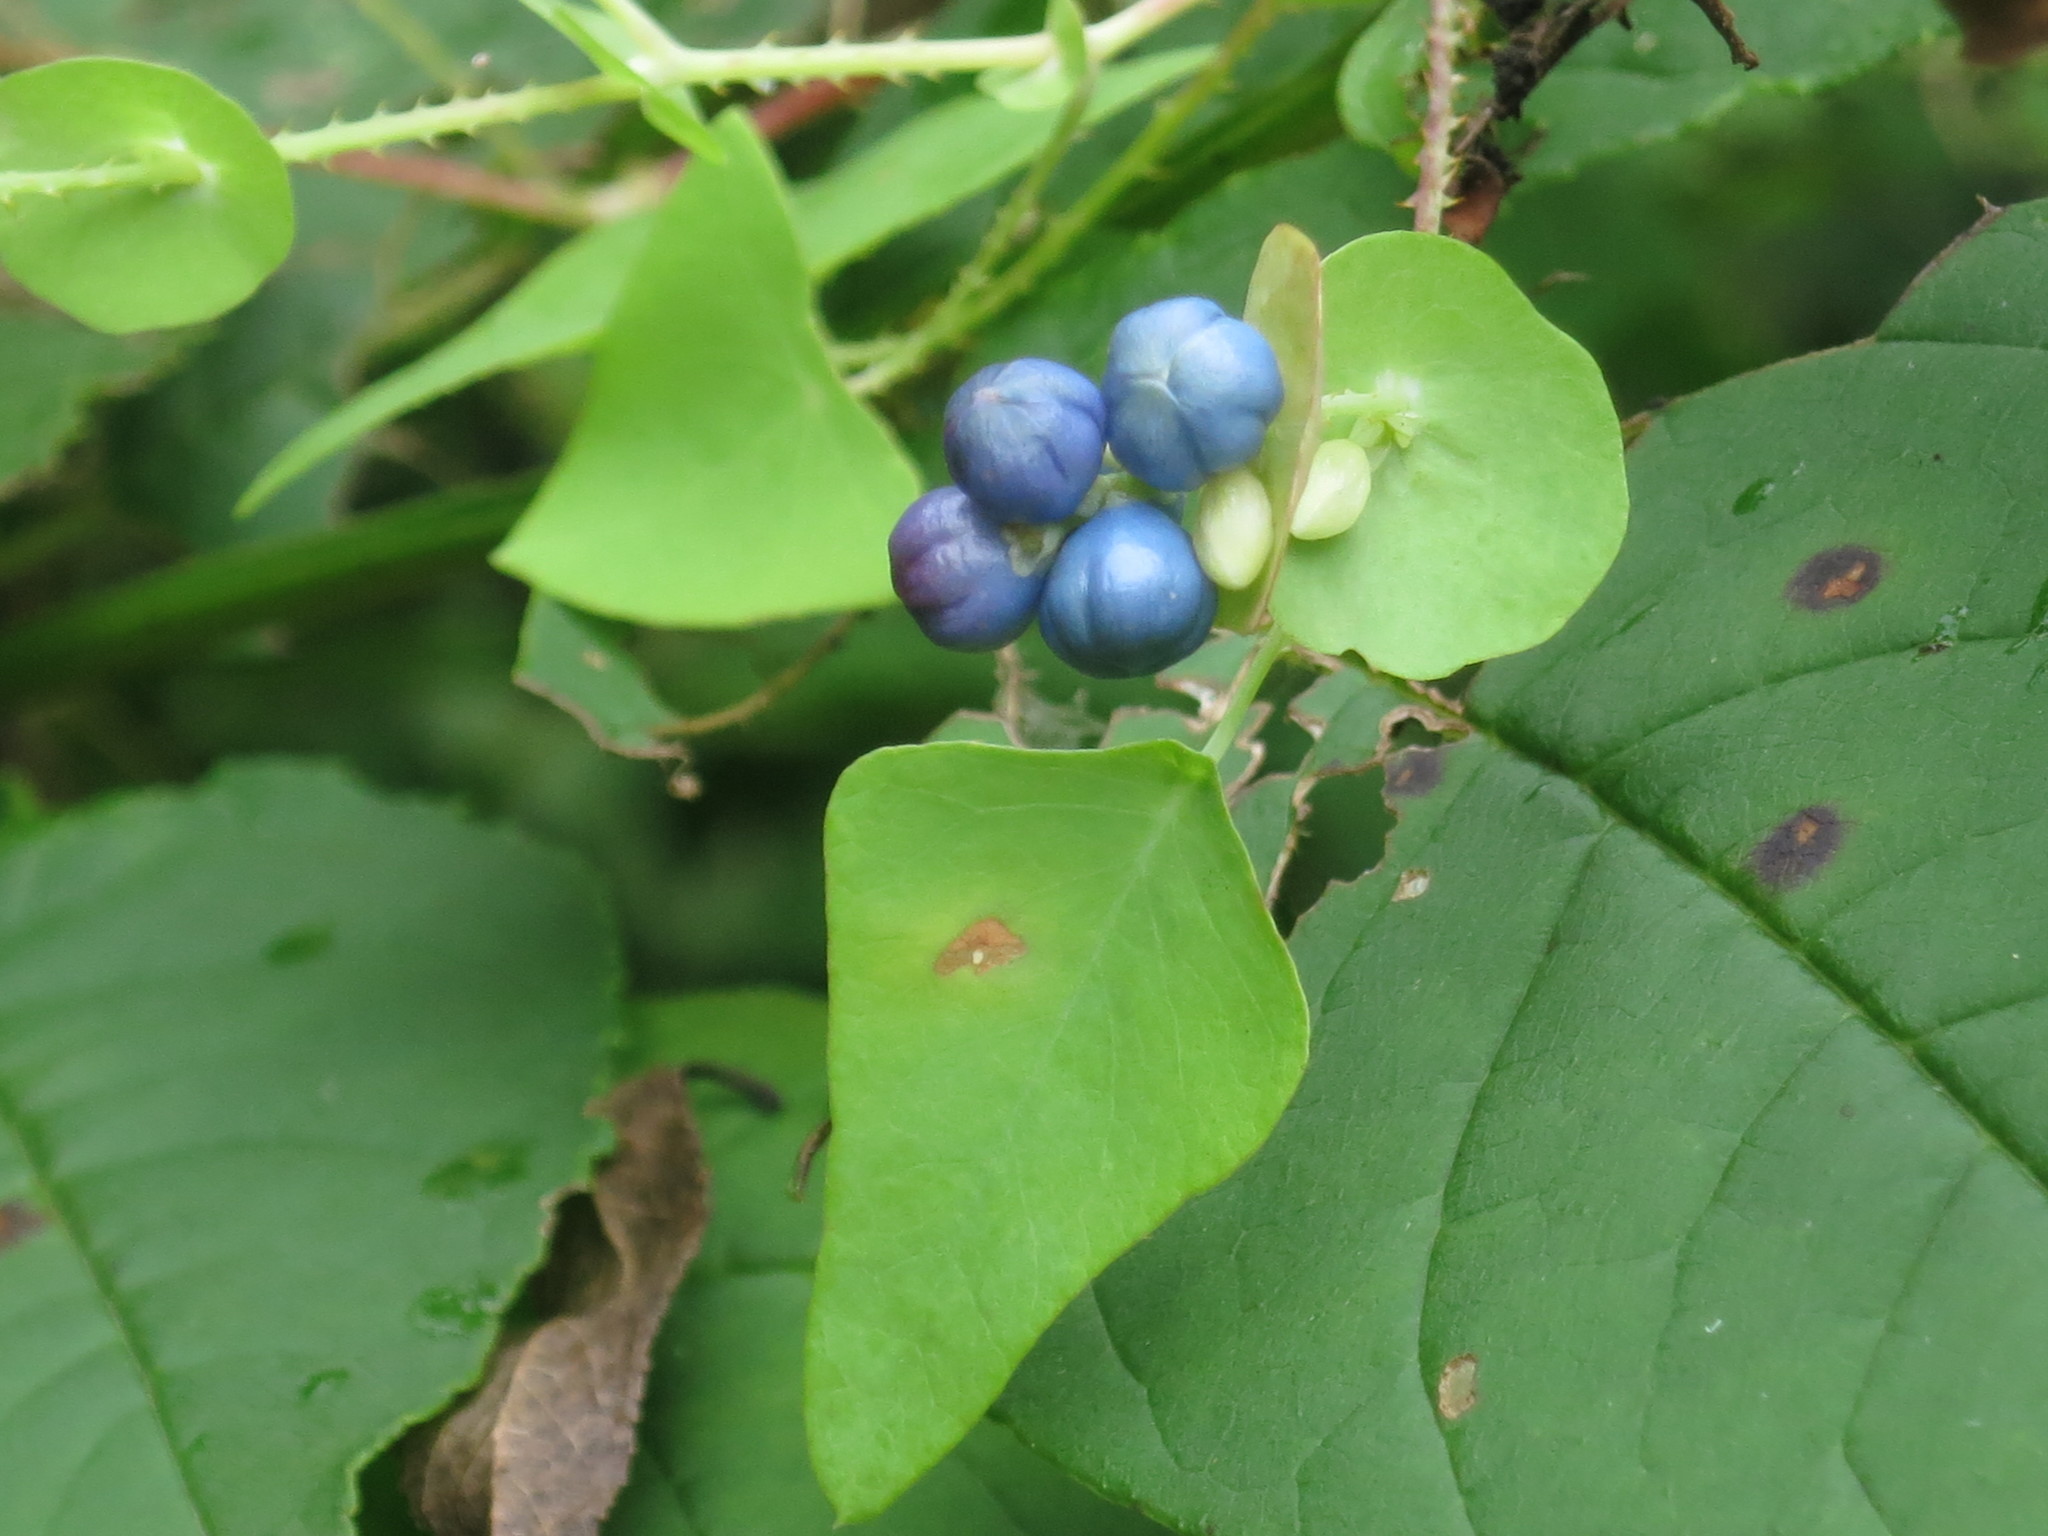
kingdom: Plantae
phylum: Tracheophyta
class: Magnoliopsida
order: Caryophyllales
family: Polygonaceae
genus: Persicaria
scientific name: Persicaria perfoliata
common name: Asiatic tearthumb
